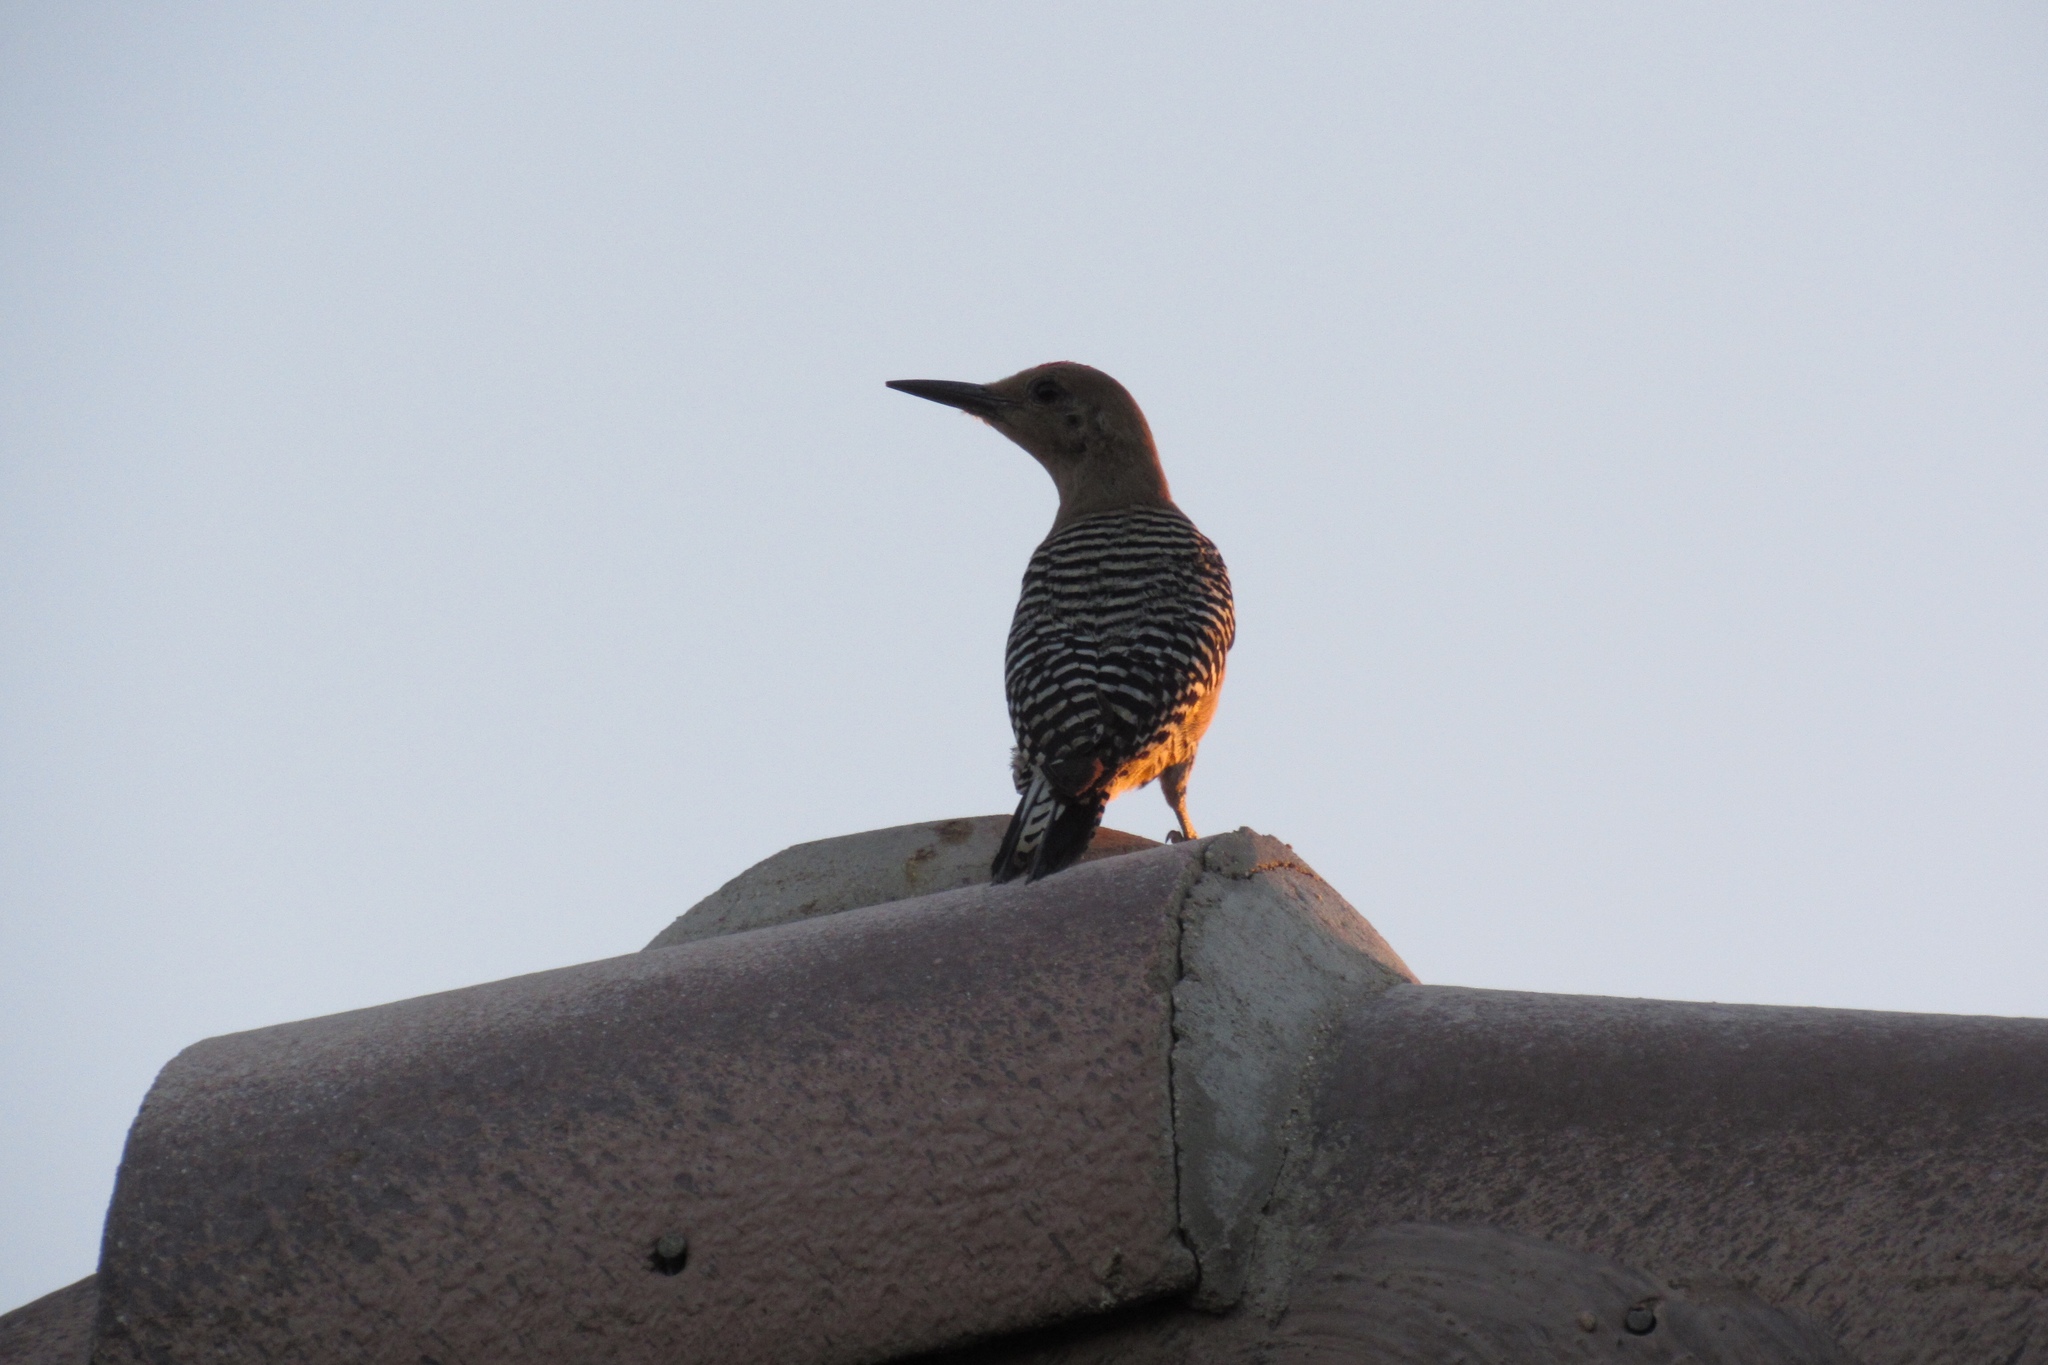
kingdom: Animalia
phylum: Chordata
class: Aves
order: Piciformes
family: Picidae
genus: Melanerpes
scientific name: Melanerpes uropygialis
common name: Gila woodpecker
